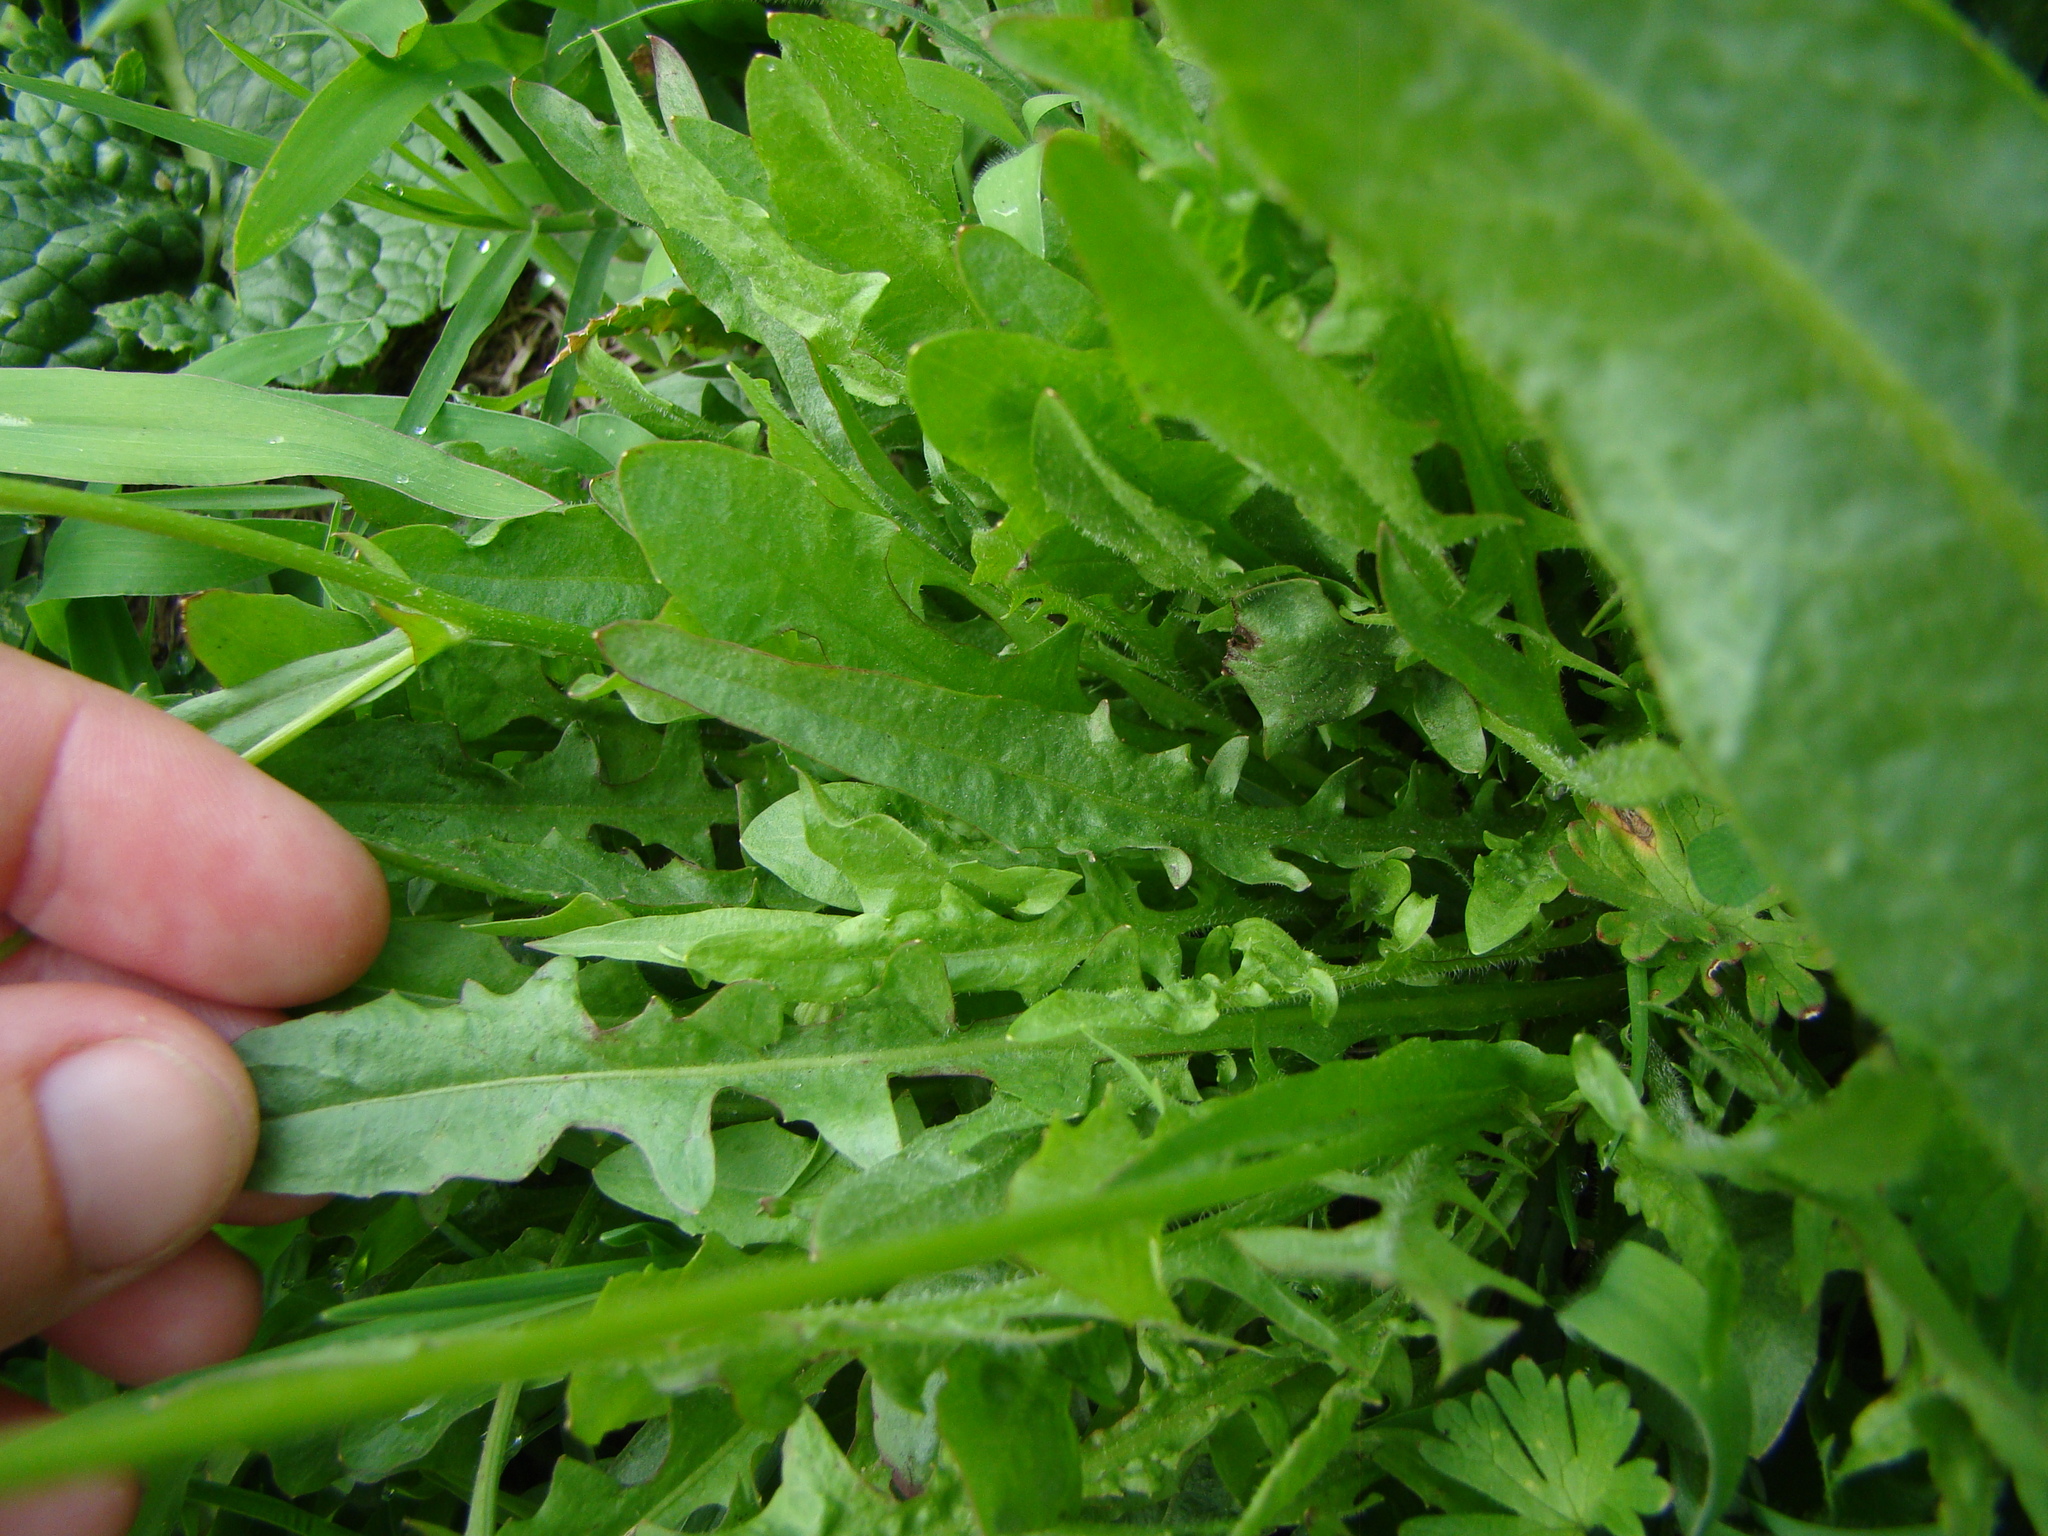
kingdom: Plantae
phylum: Tracheophyta
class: Magnoliopsida
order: Asterales
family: Asteraceae
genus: Crepis
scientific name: Crepis capillaris
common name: Smooth hawksbeard
